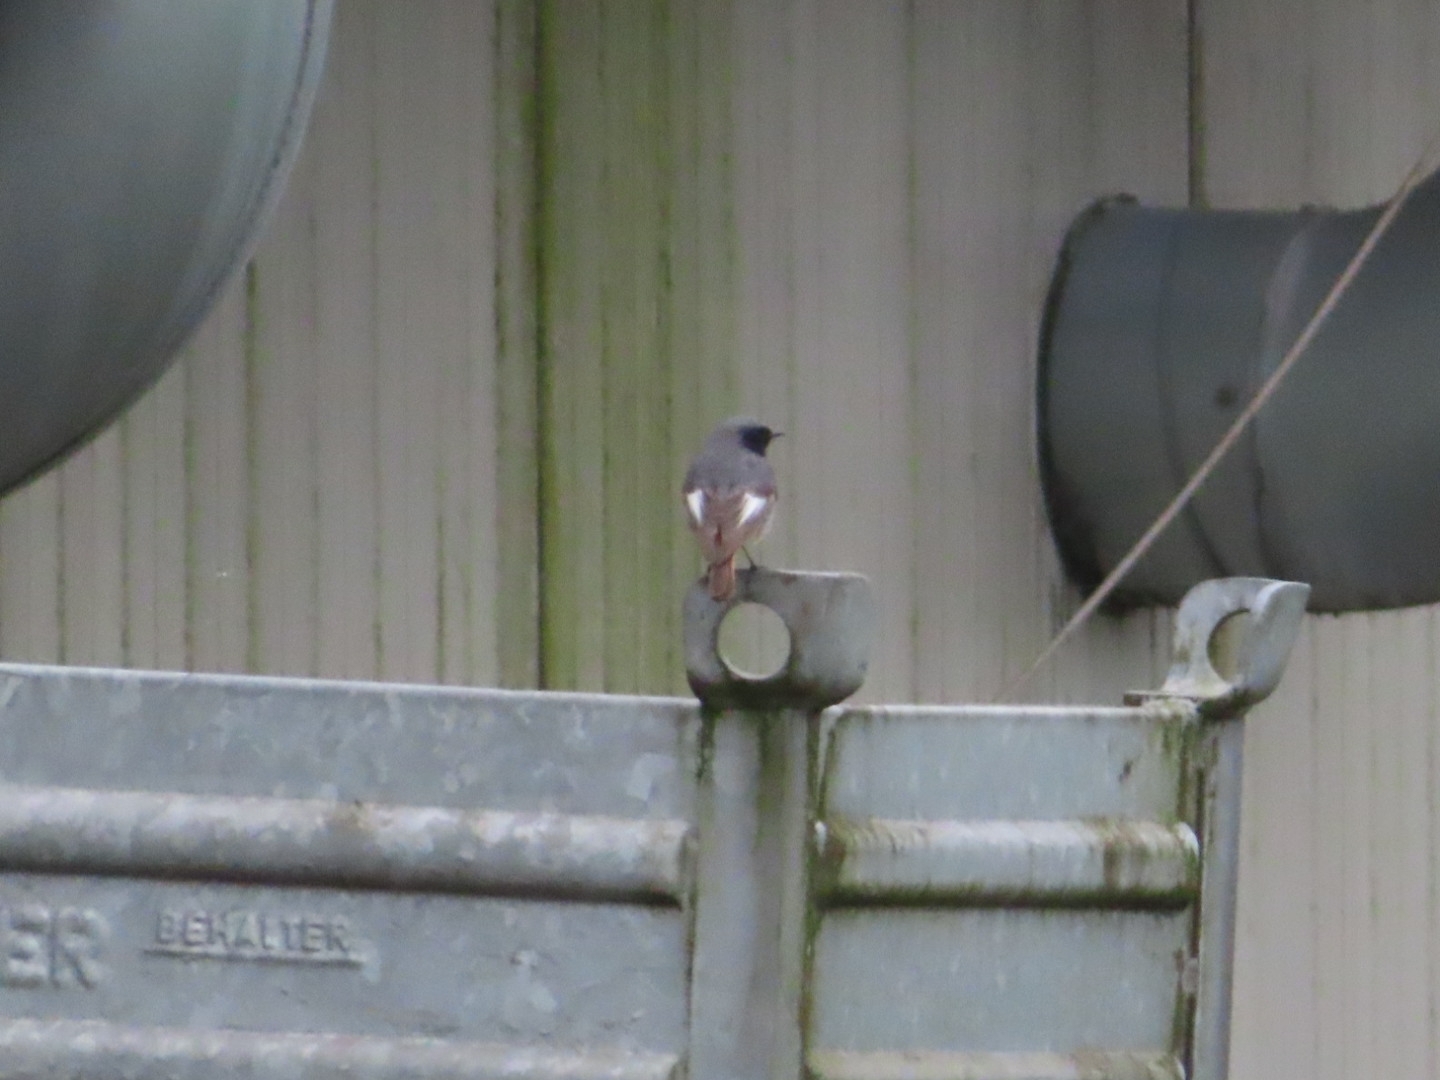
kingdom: Animalia
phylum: Chordata
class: Aves
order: Passeriformes
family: Muscicapidae
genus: Phoenicurus
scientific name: Phoenicurus ochruros
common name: Black redstart
